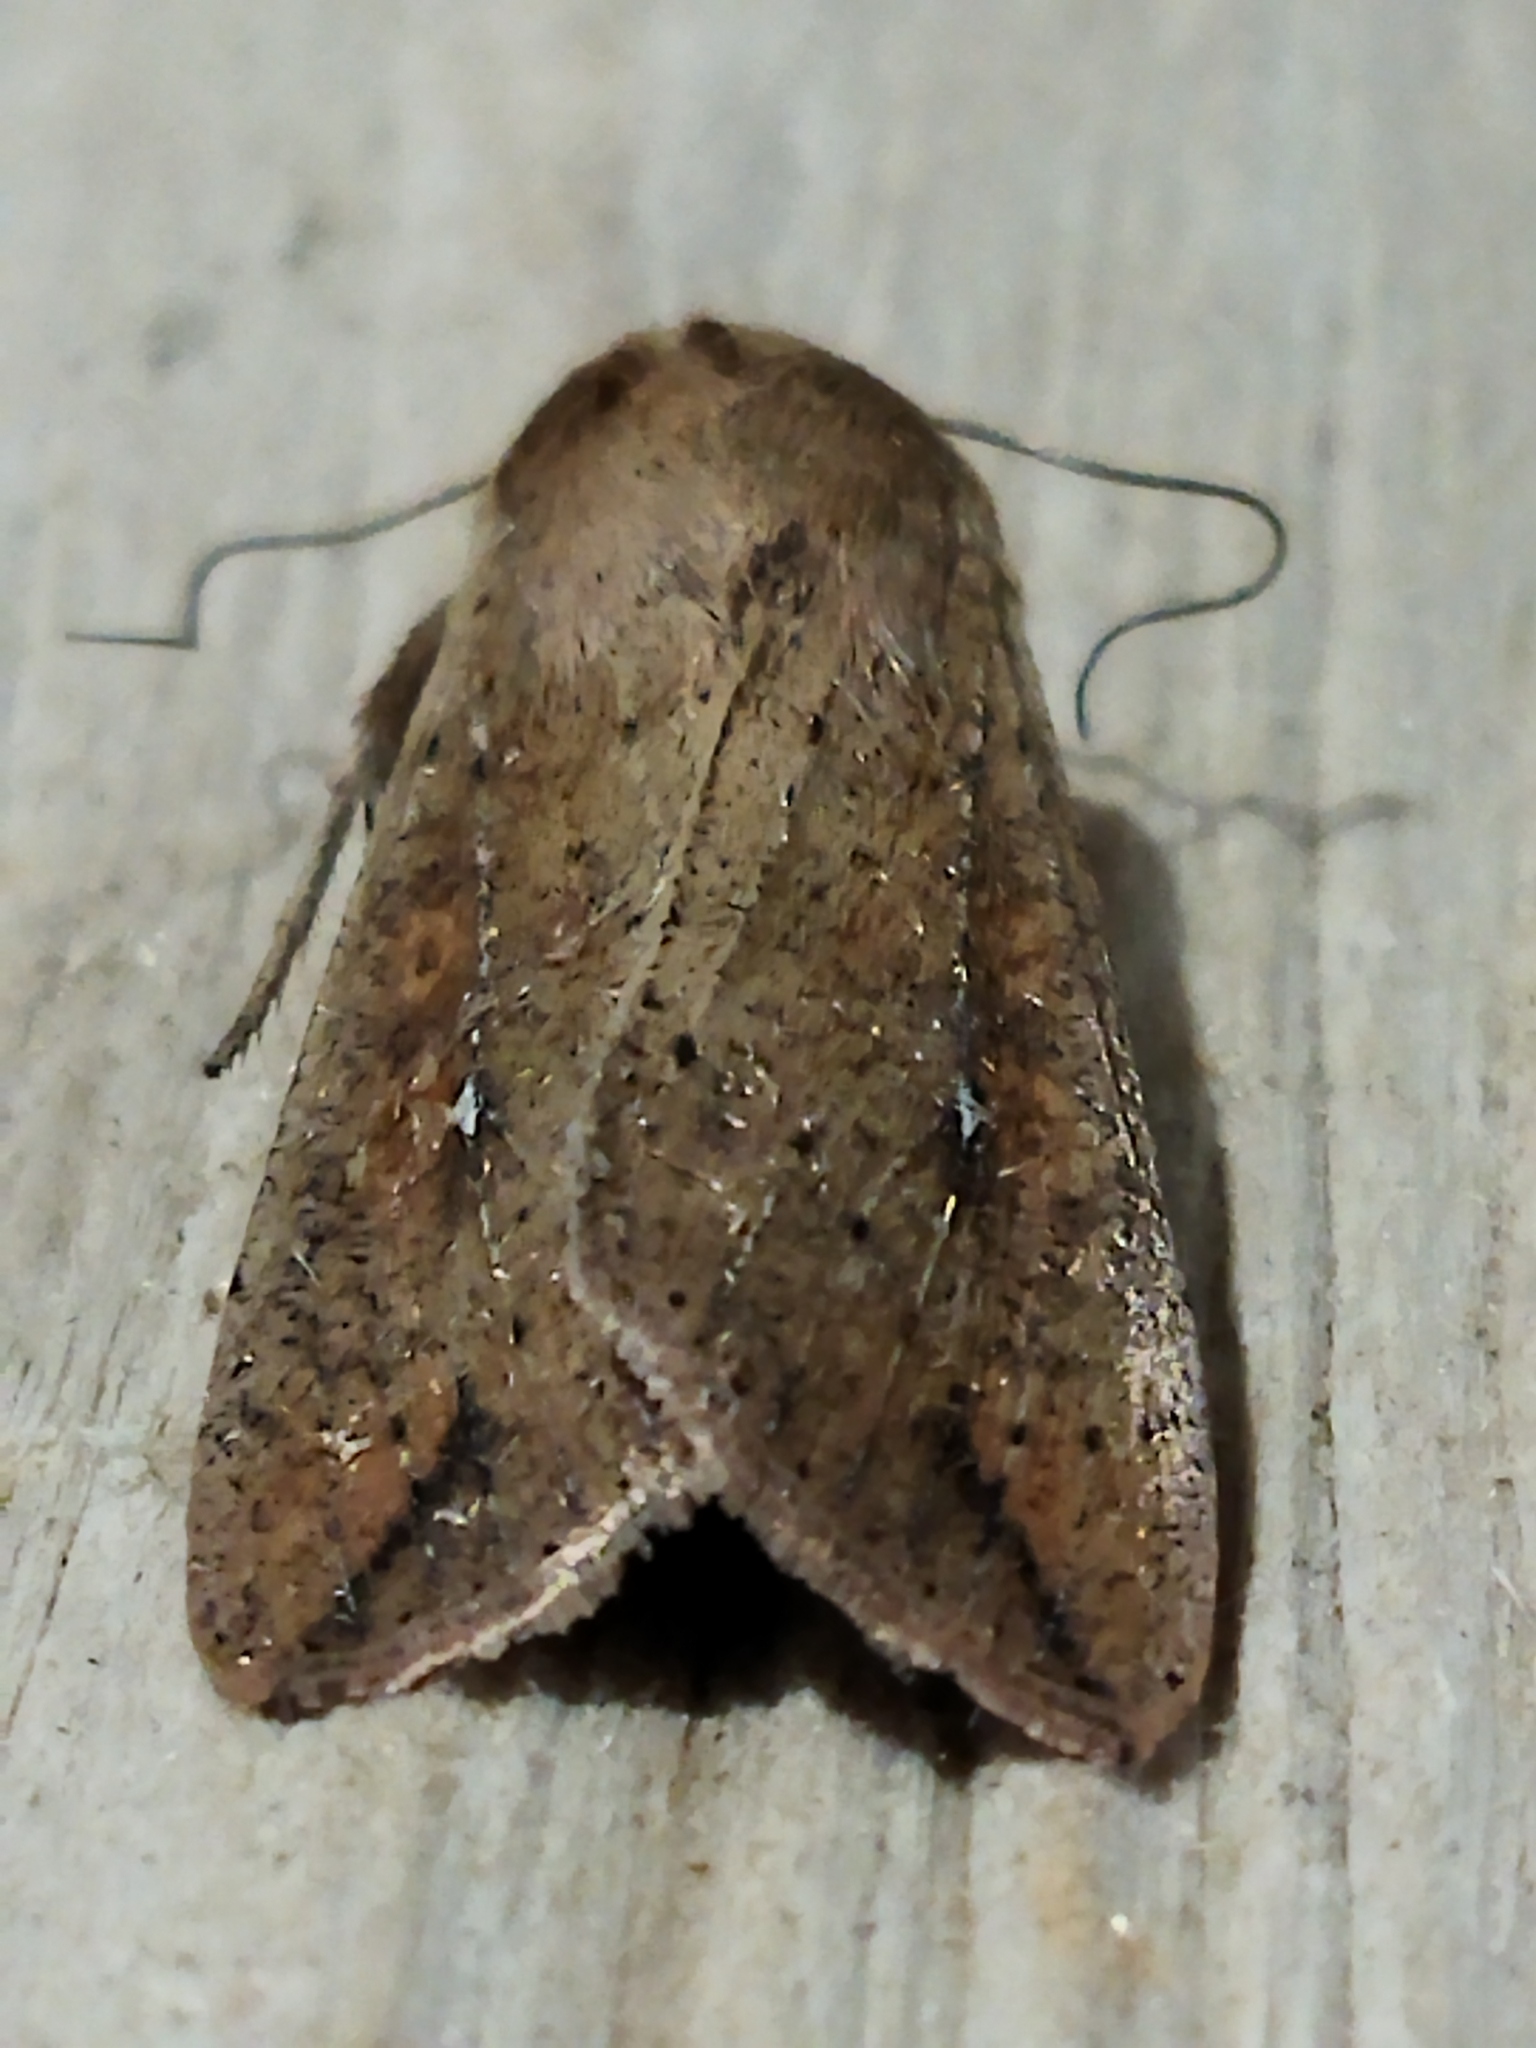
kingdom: Animalia
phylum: Arthropoda
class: Insecta
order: Lepidoptera
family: Noctuidae
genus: Mythimna
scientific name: Mythimna unipuncta
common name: White-speck
